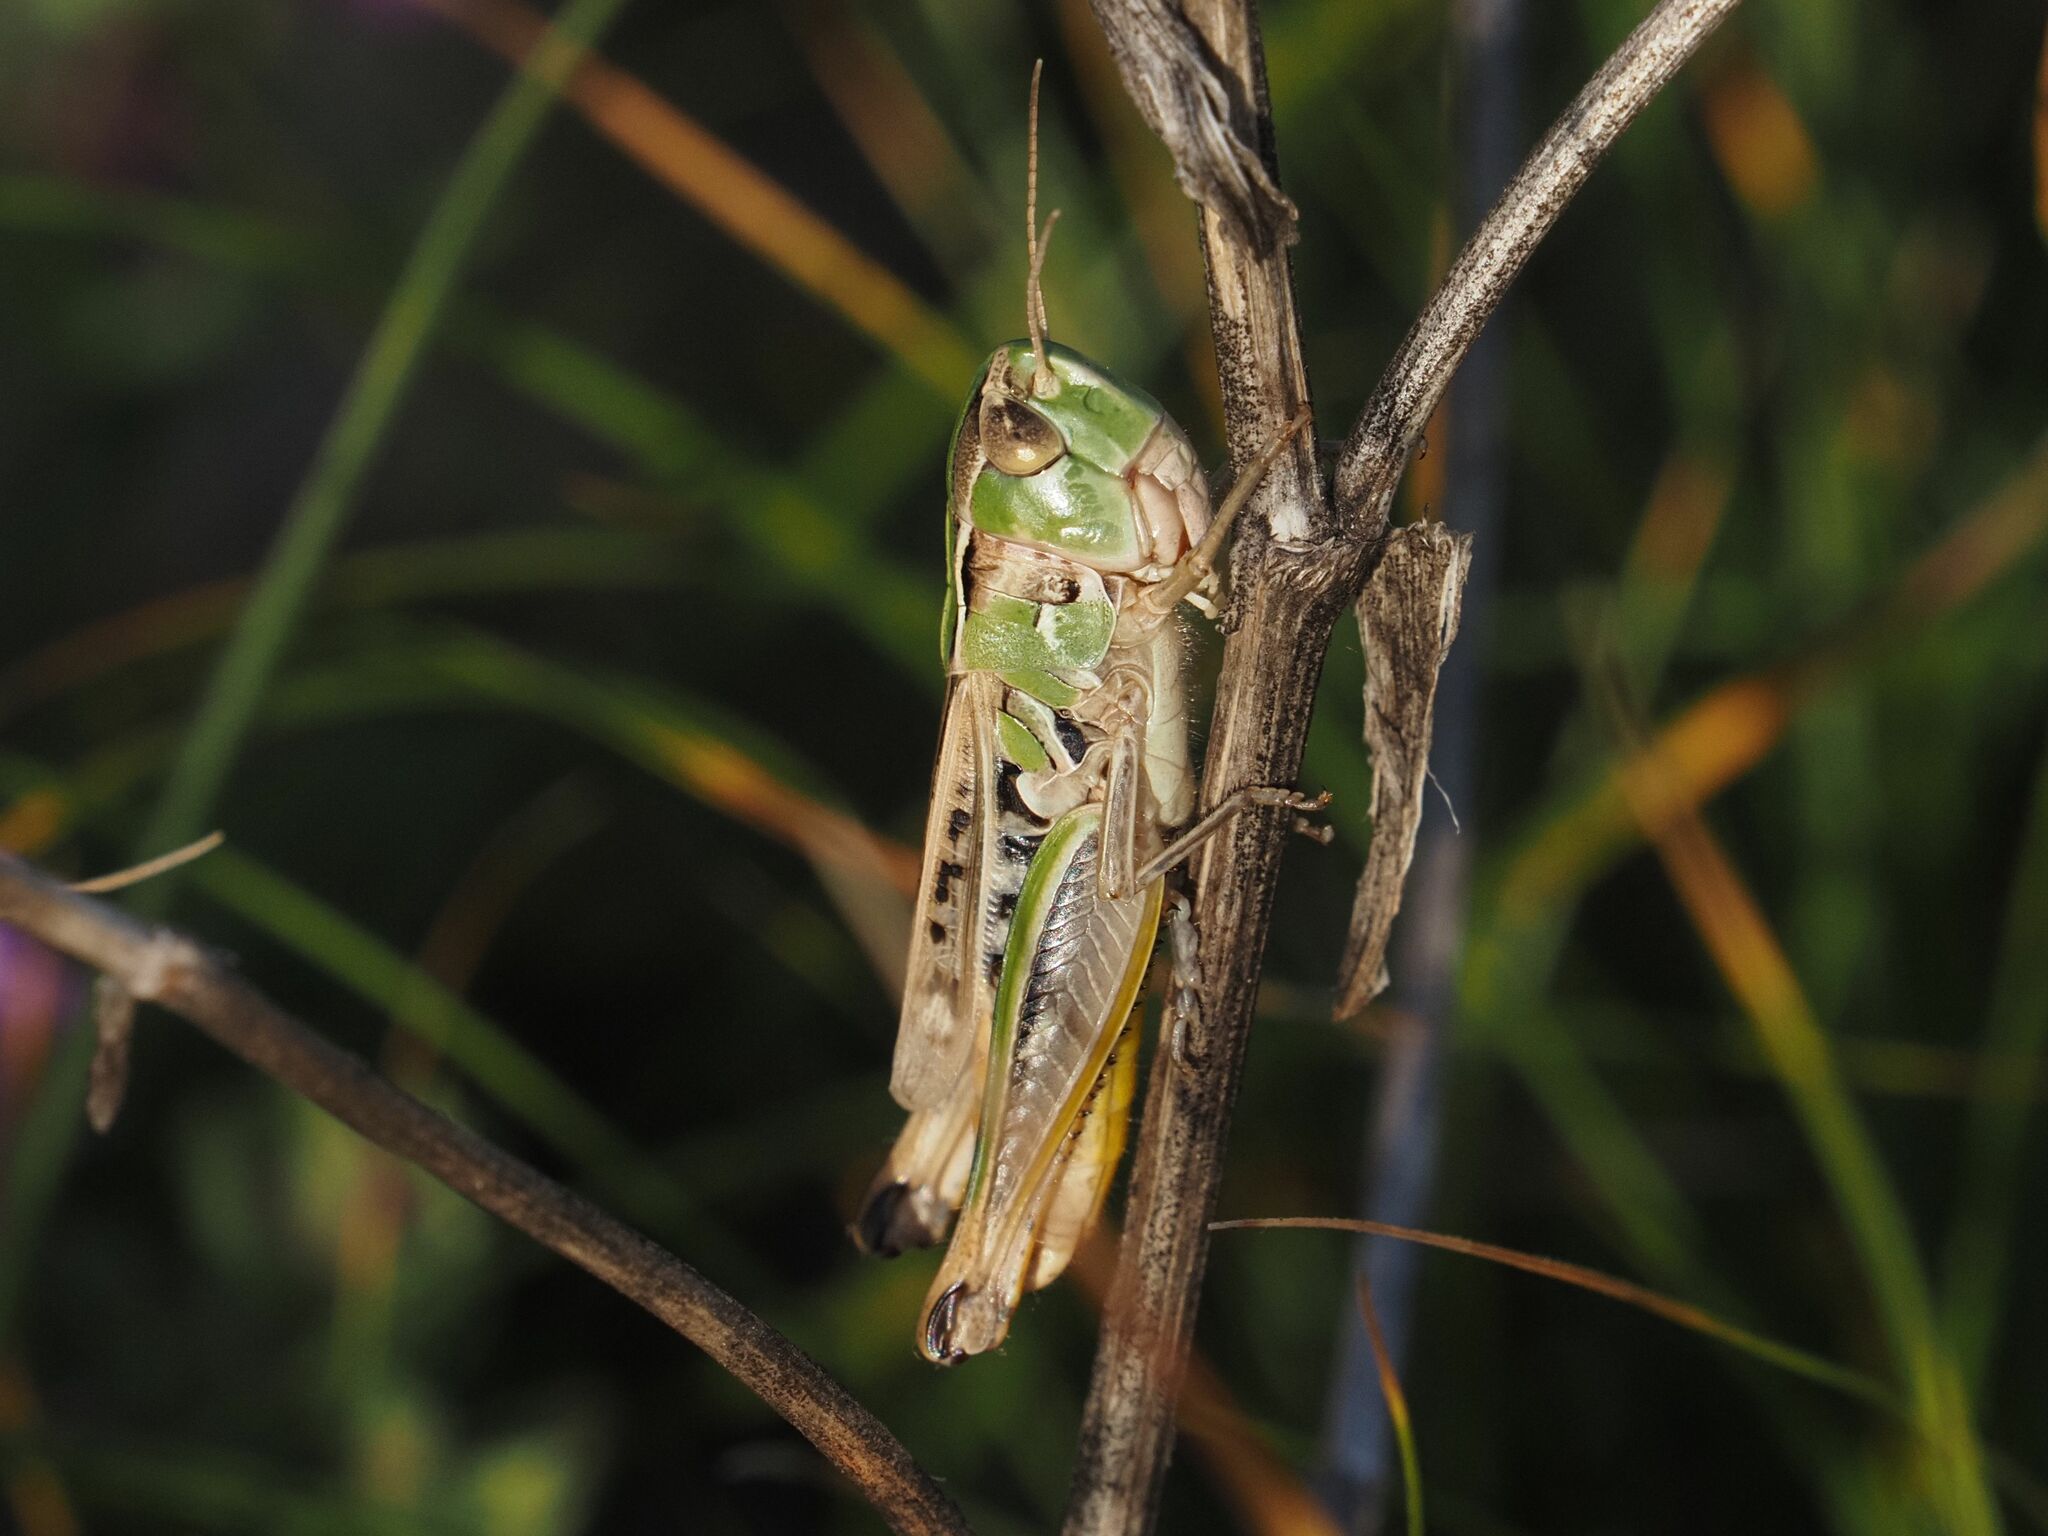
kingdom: Animalia
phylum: Arthropoda
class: Insecta
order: Orthoptera
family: Acrididae
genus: Stenobothrus
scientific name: Stenobothrus nigromaculatus
